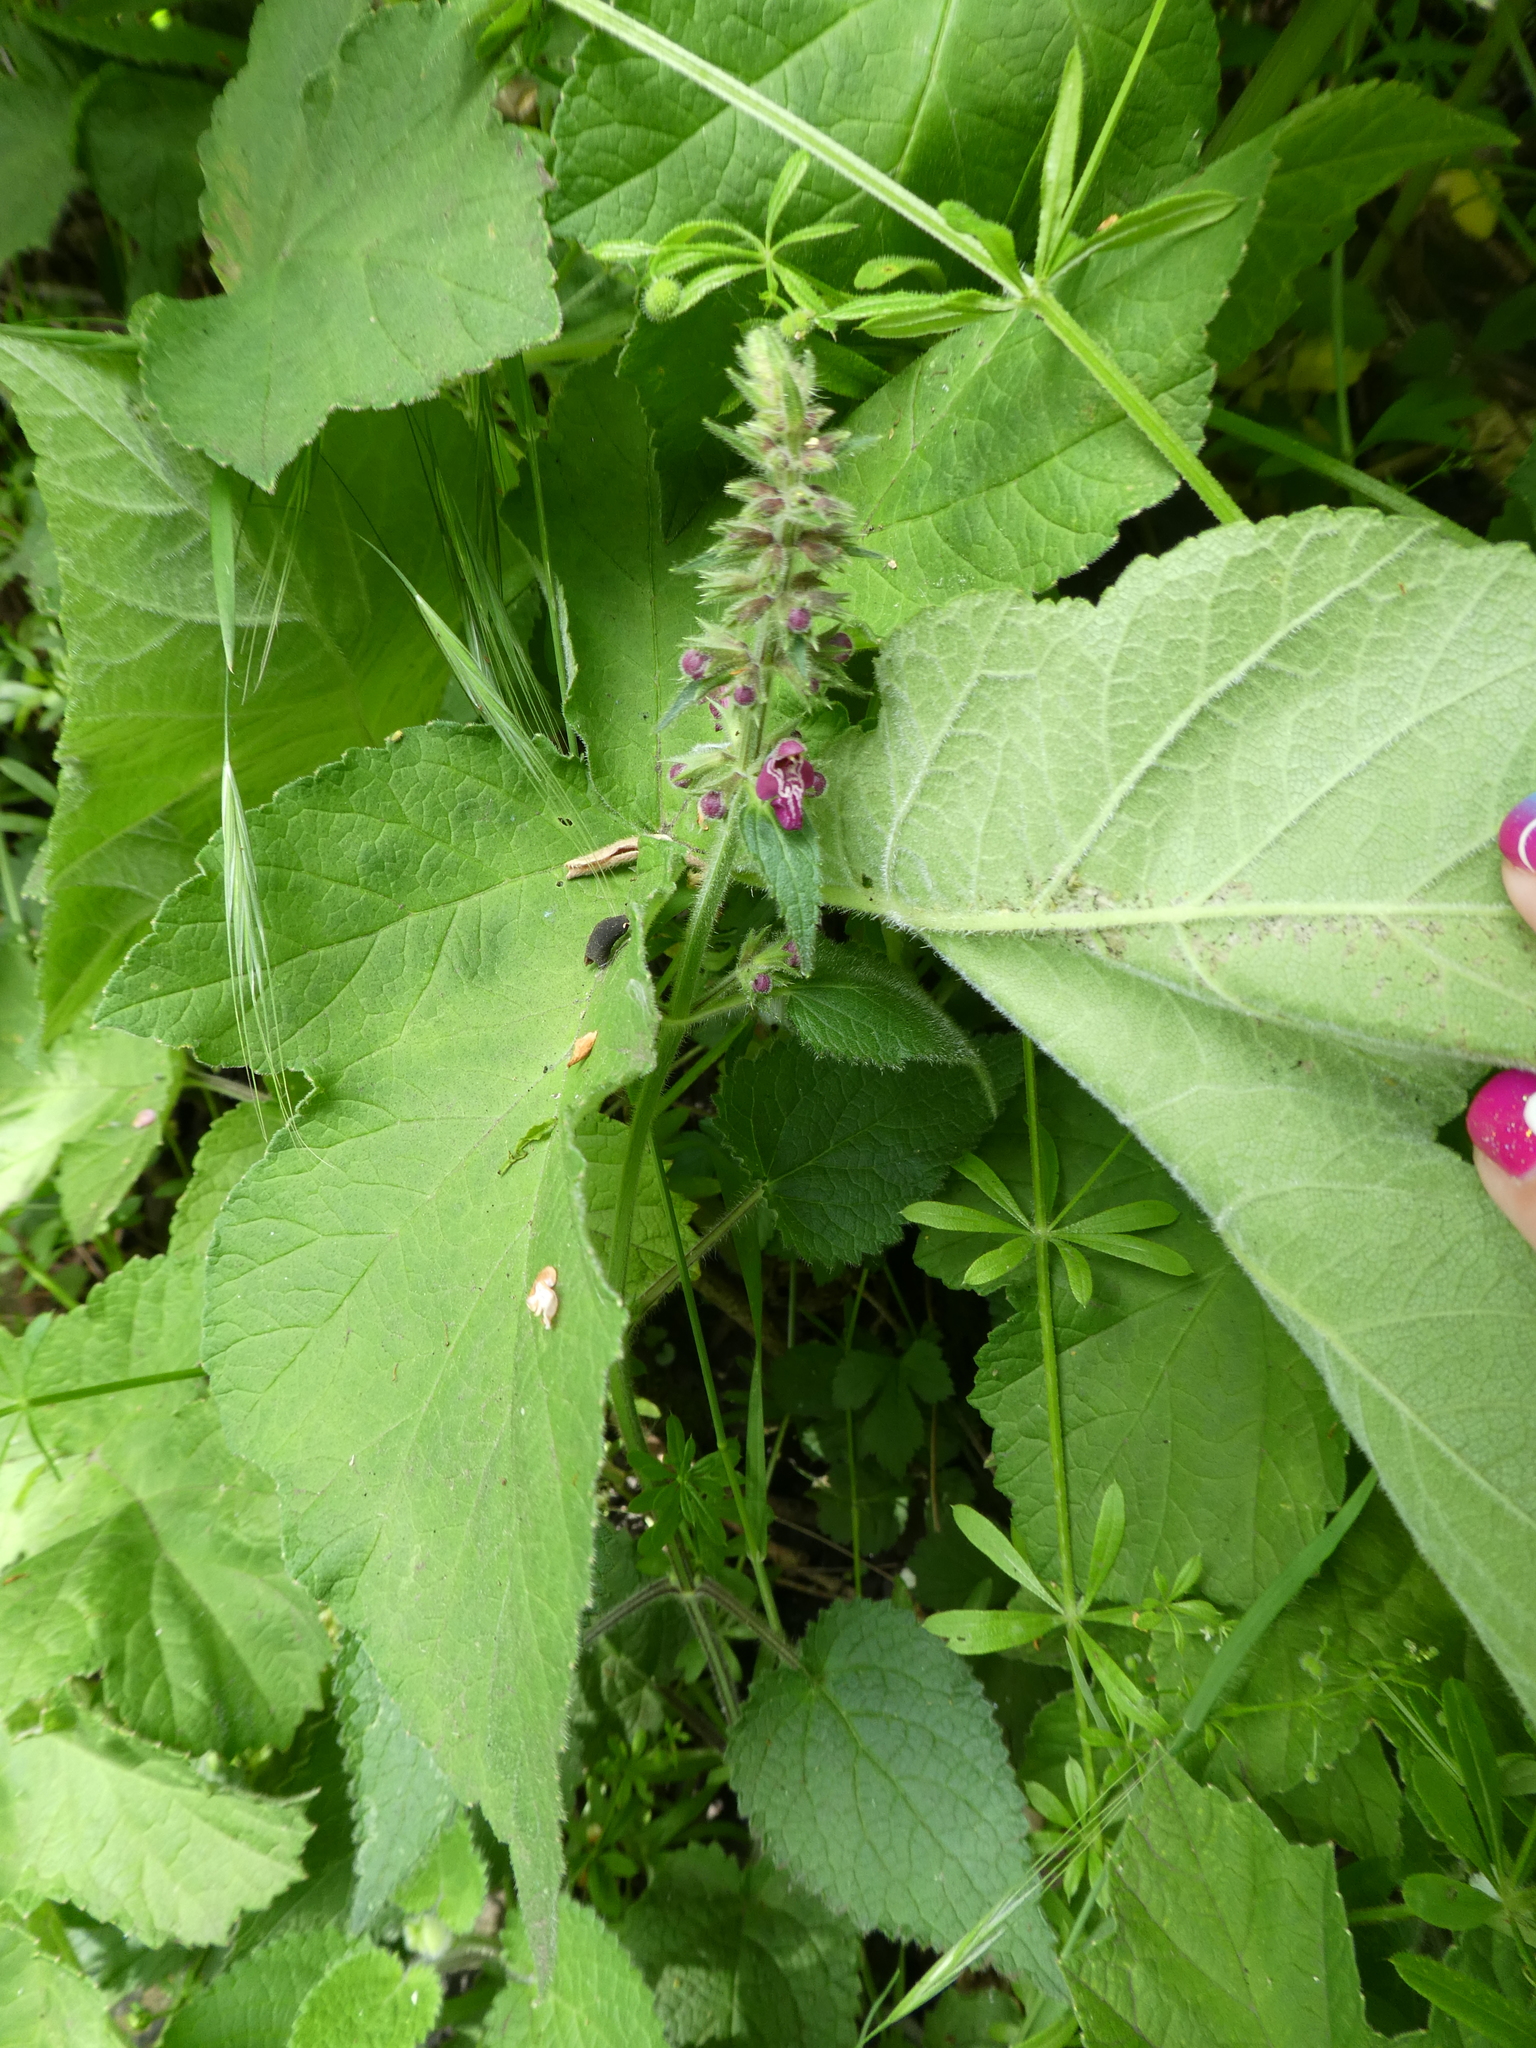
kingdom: Plantae
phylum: Tracheophyta
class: Magnoliopsida
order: Lamiales
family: Lamiaceae
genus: Stachys
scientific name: Stachys sylvatica
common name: Hedge woundwort
